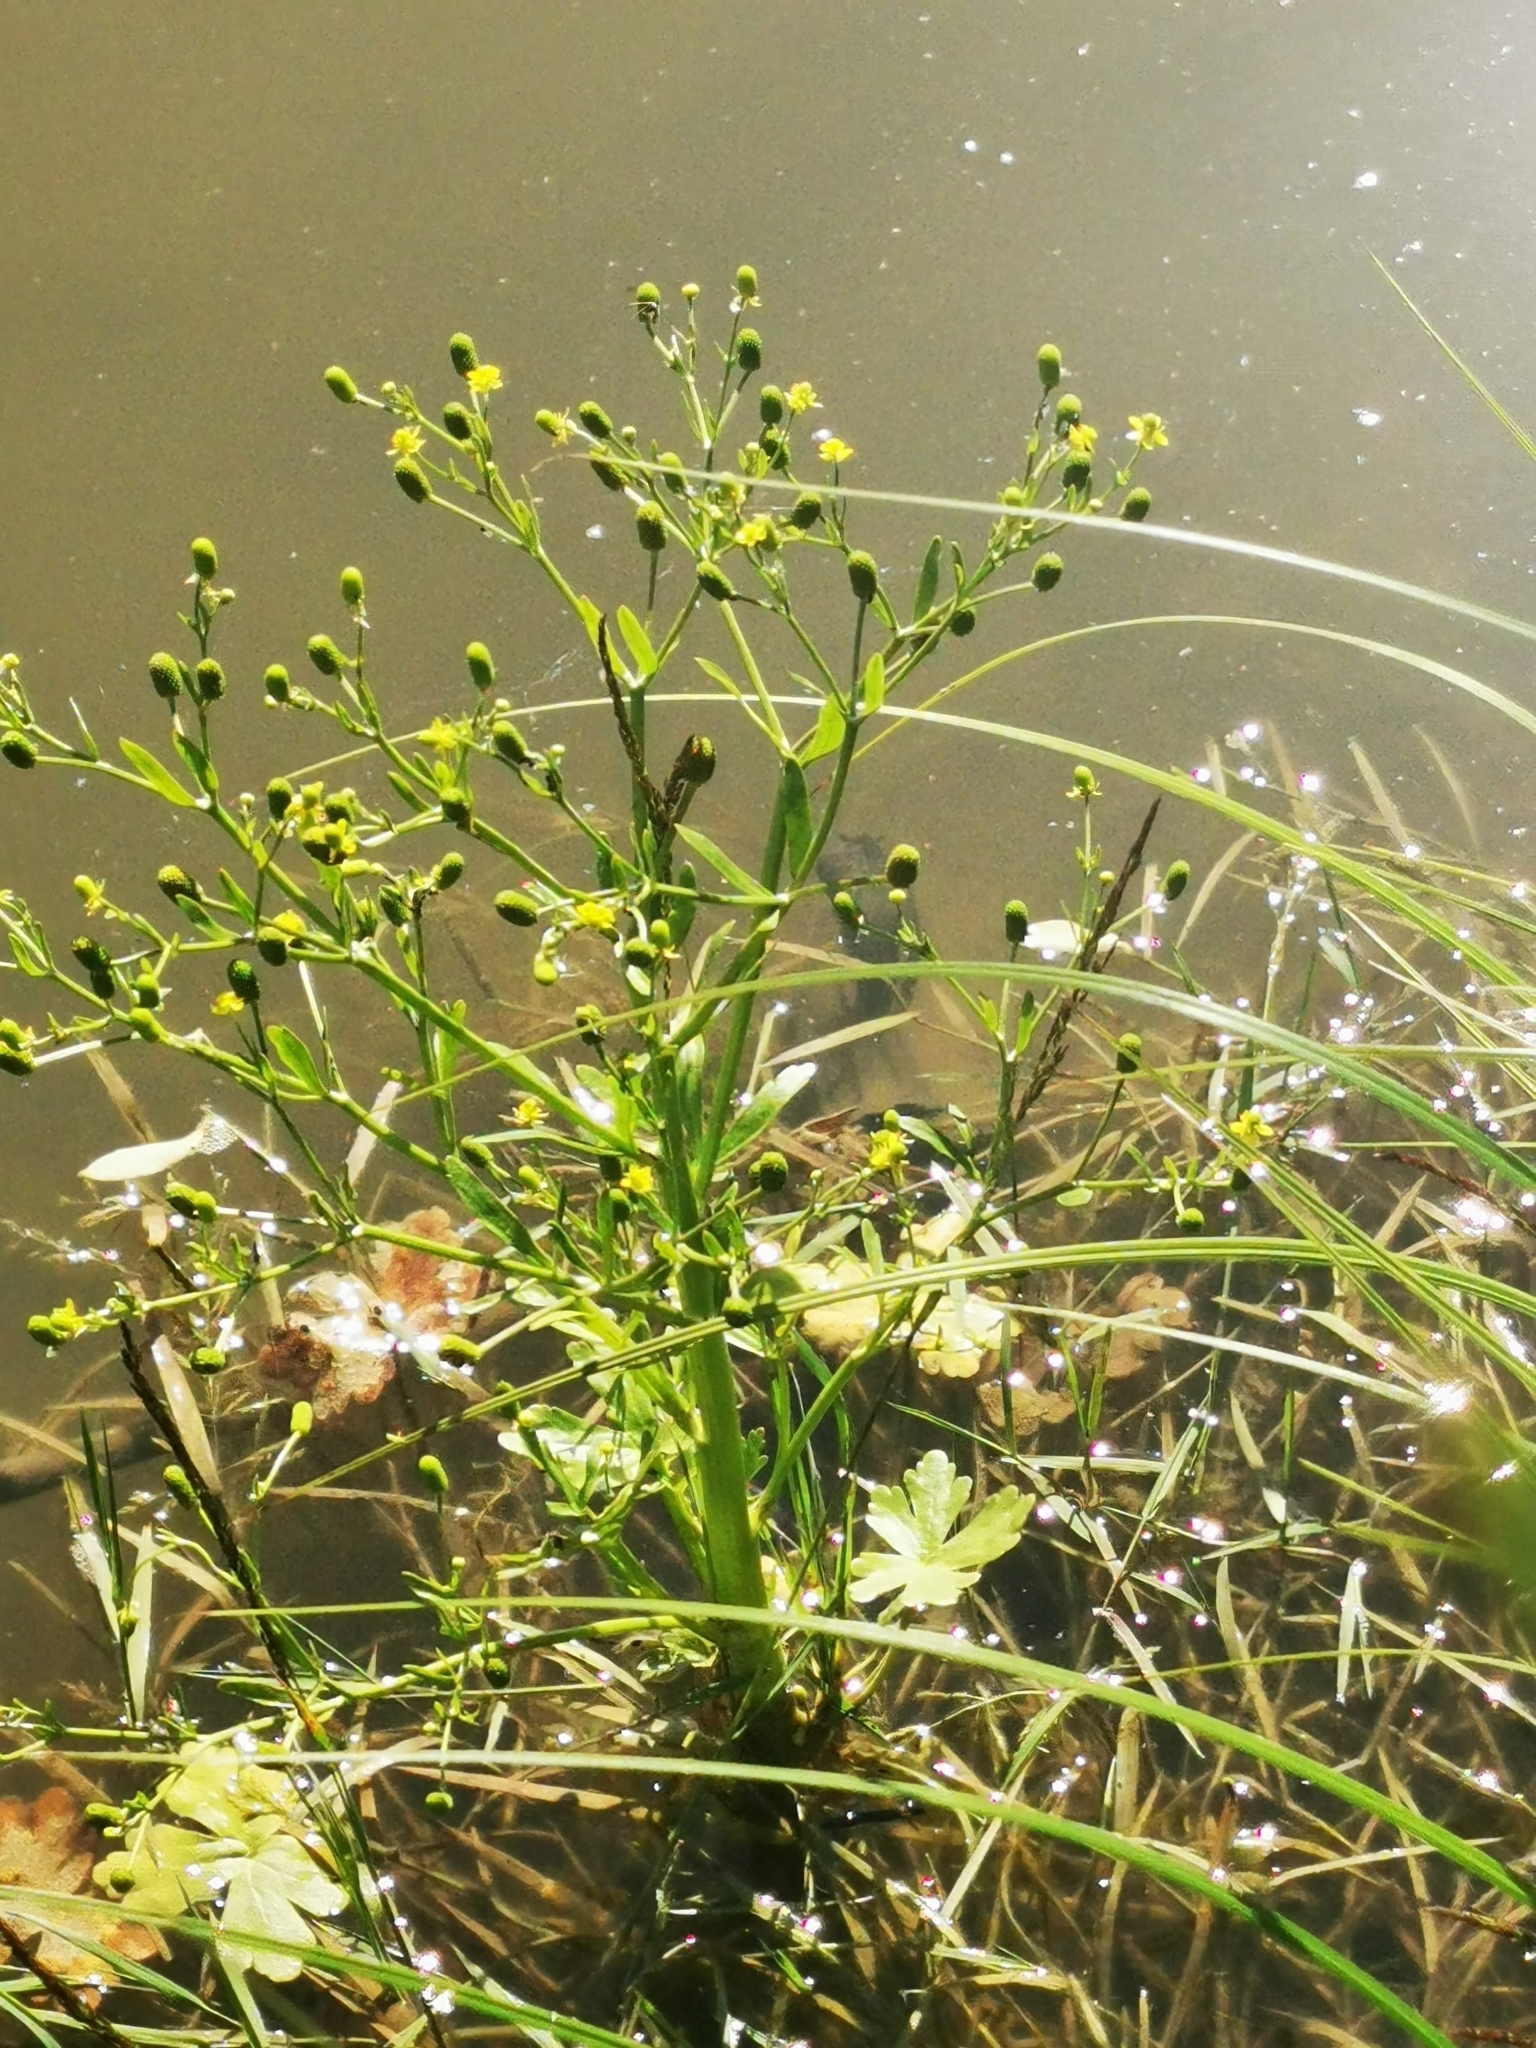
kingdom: Plantae
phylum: Tracheophyta
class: Magnoliopsida
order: Ranunculales
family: Ranunculaceae
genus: Ranunculus
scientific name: Ranunculus sceleratus
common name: Celery-leaved buttercup
